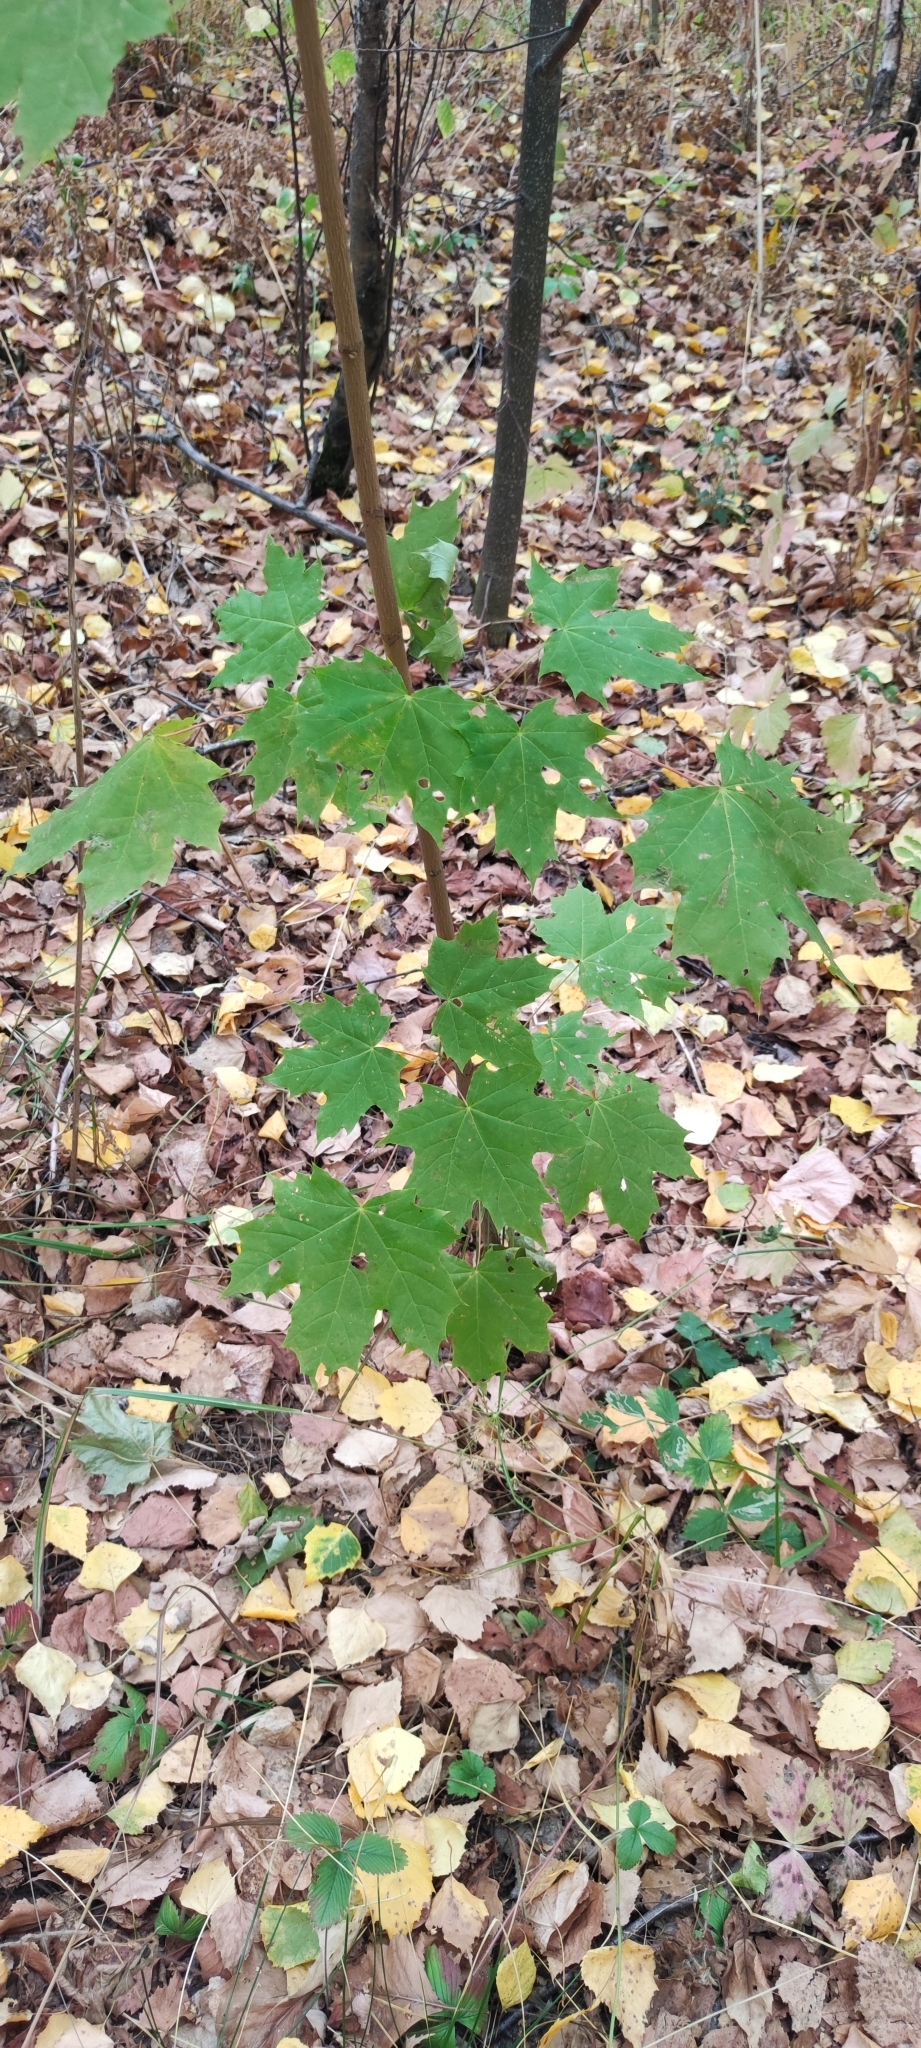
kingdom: Plantae
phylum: Tracheophyta
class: Magnoliopsida
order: Sapindales
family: Sapindaceae
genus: Acer
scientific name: Acer platanoides
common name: Norway maple
